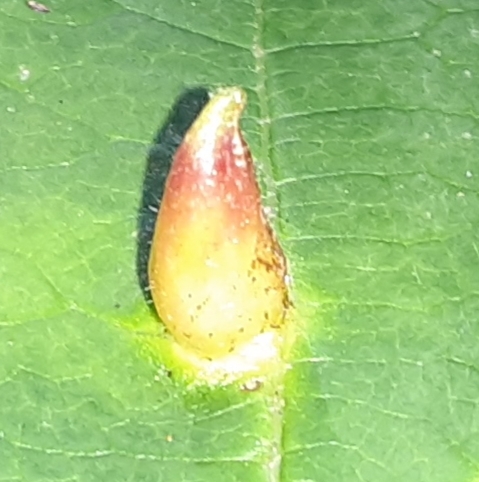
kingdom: Animalia
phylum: Arthropoda
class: Insecta
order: Hemiptera
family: Aphididae
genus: Hormaphis
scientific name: Hormaphis hamamelidis
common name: Witch-hazel cone gall aphid
